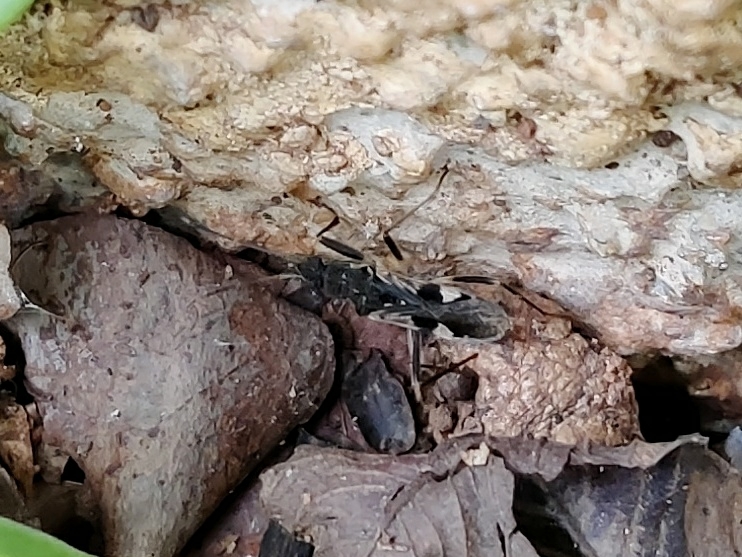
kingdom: Animalia
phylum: Arthropoda
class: Insecta
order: Hemiptera
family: Rhyparochromidae
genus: Metochus
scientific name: Metochus nudipes
